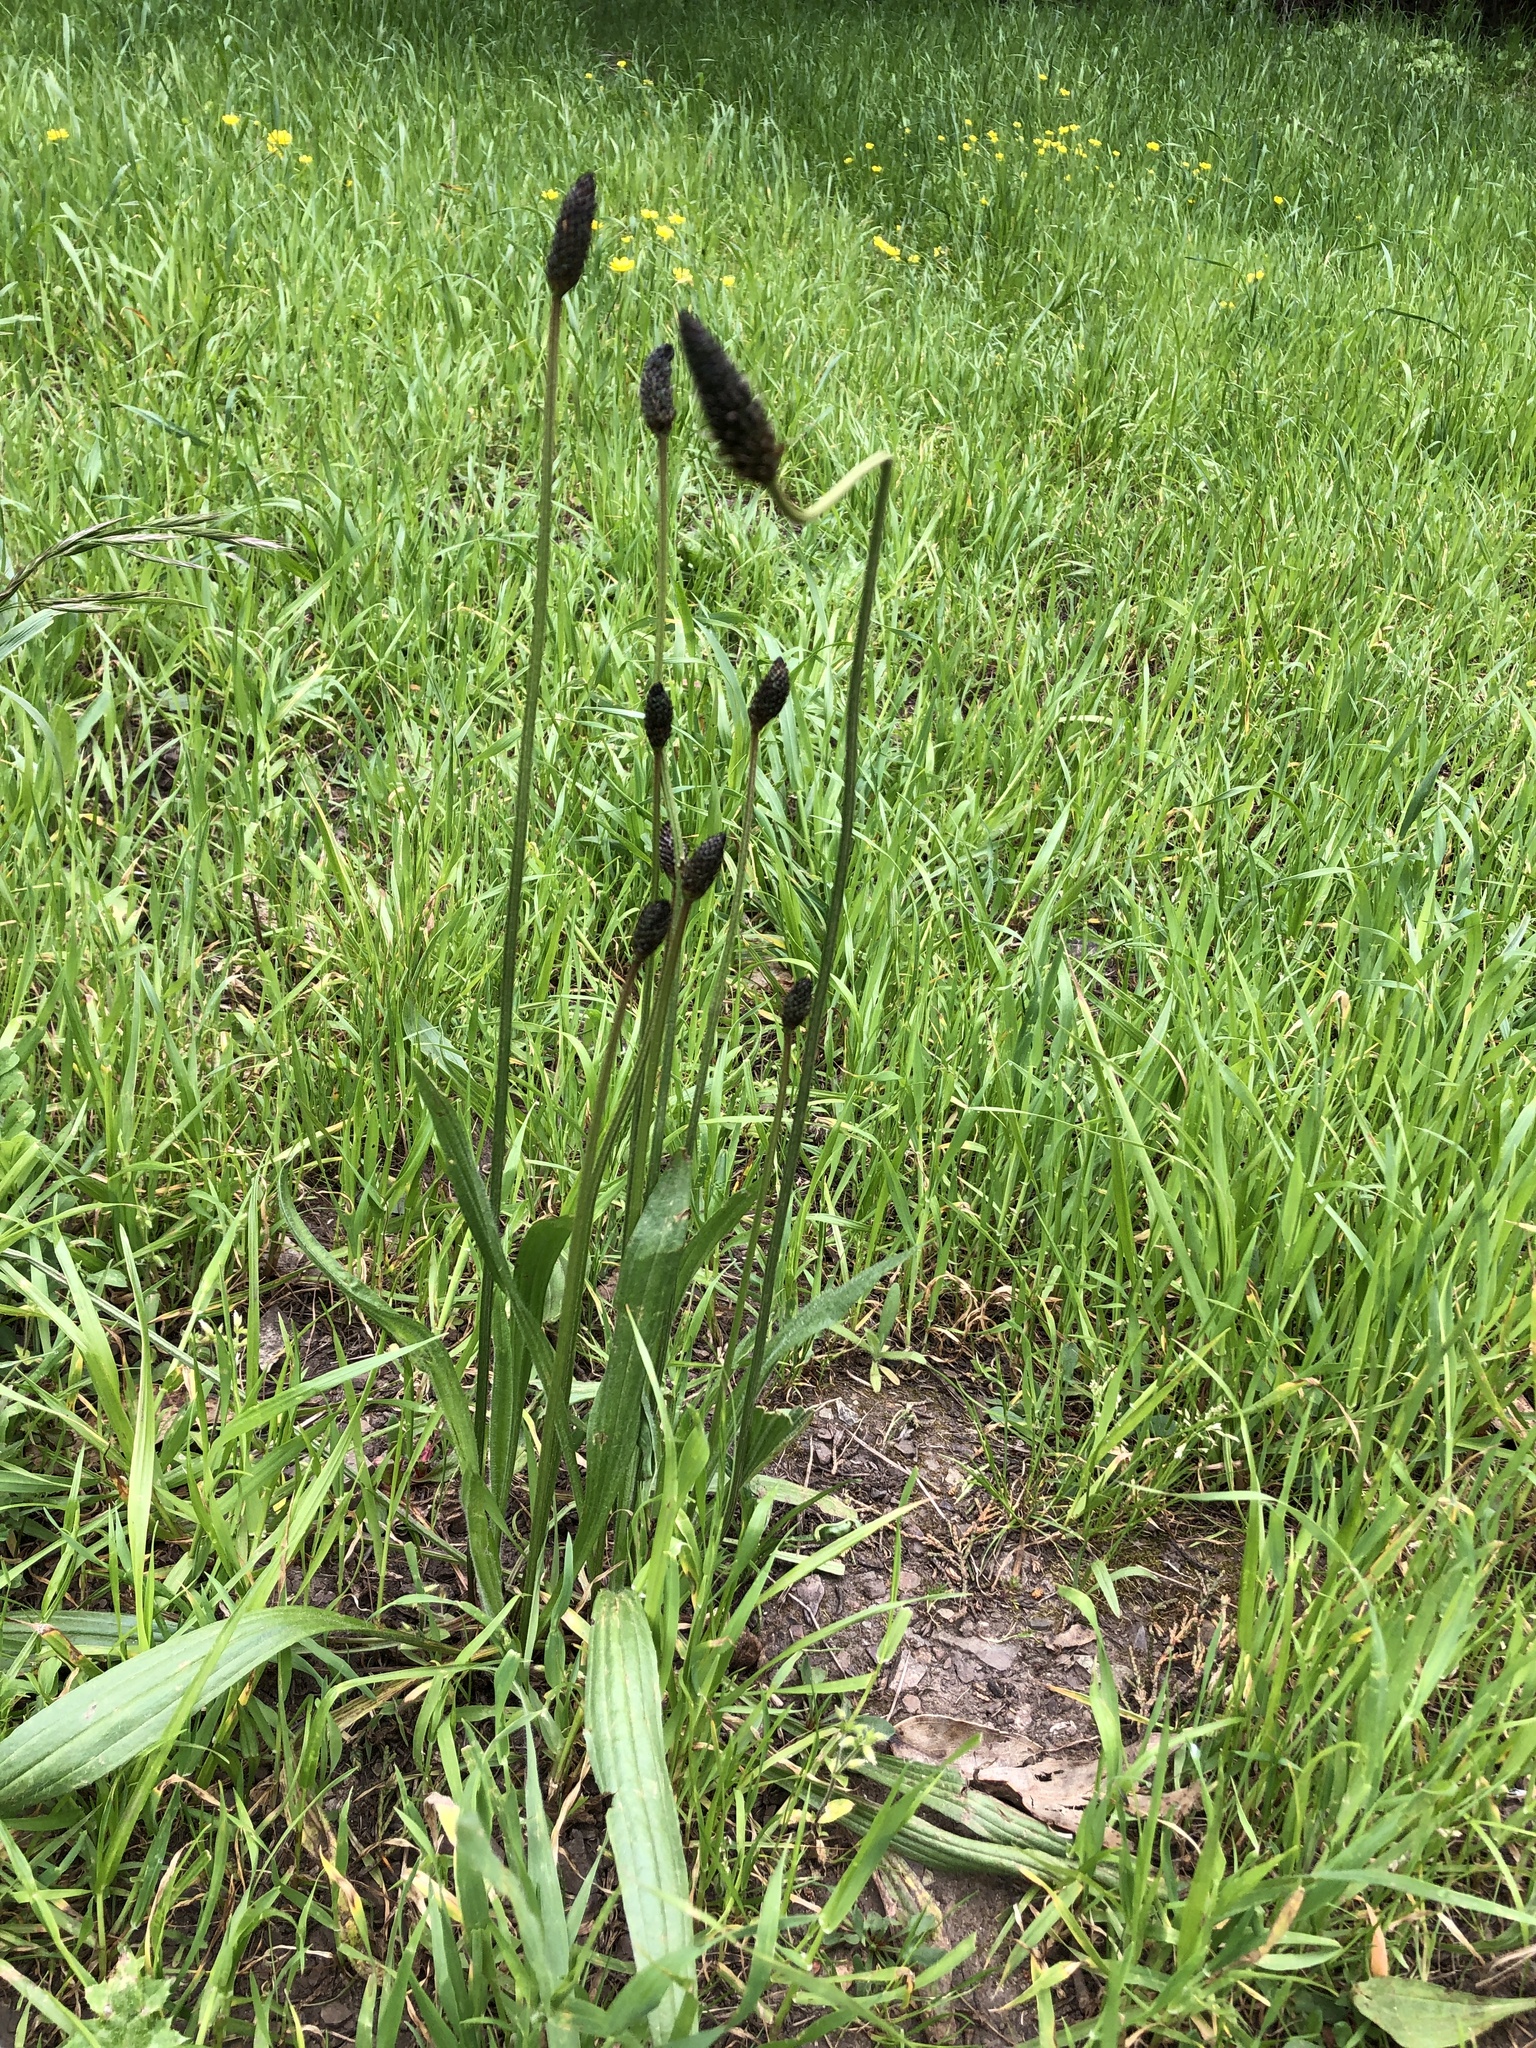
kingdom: Plantae
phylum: Tracheophyta
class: Magnoliopsida
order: Lamiales
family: Plantaginaceae
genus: Plantago
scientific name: Plantago lanceolata
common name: Ribwort plantain
